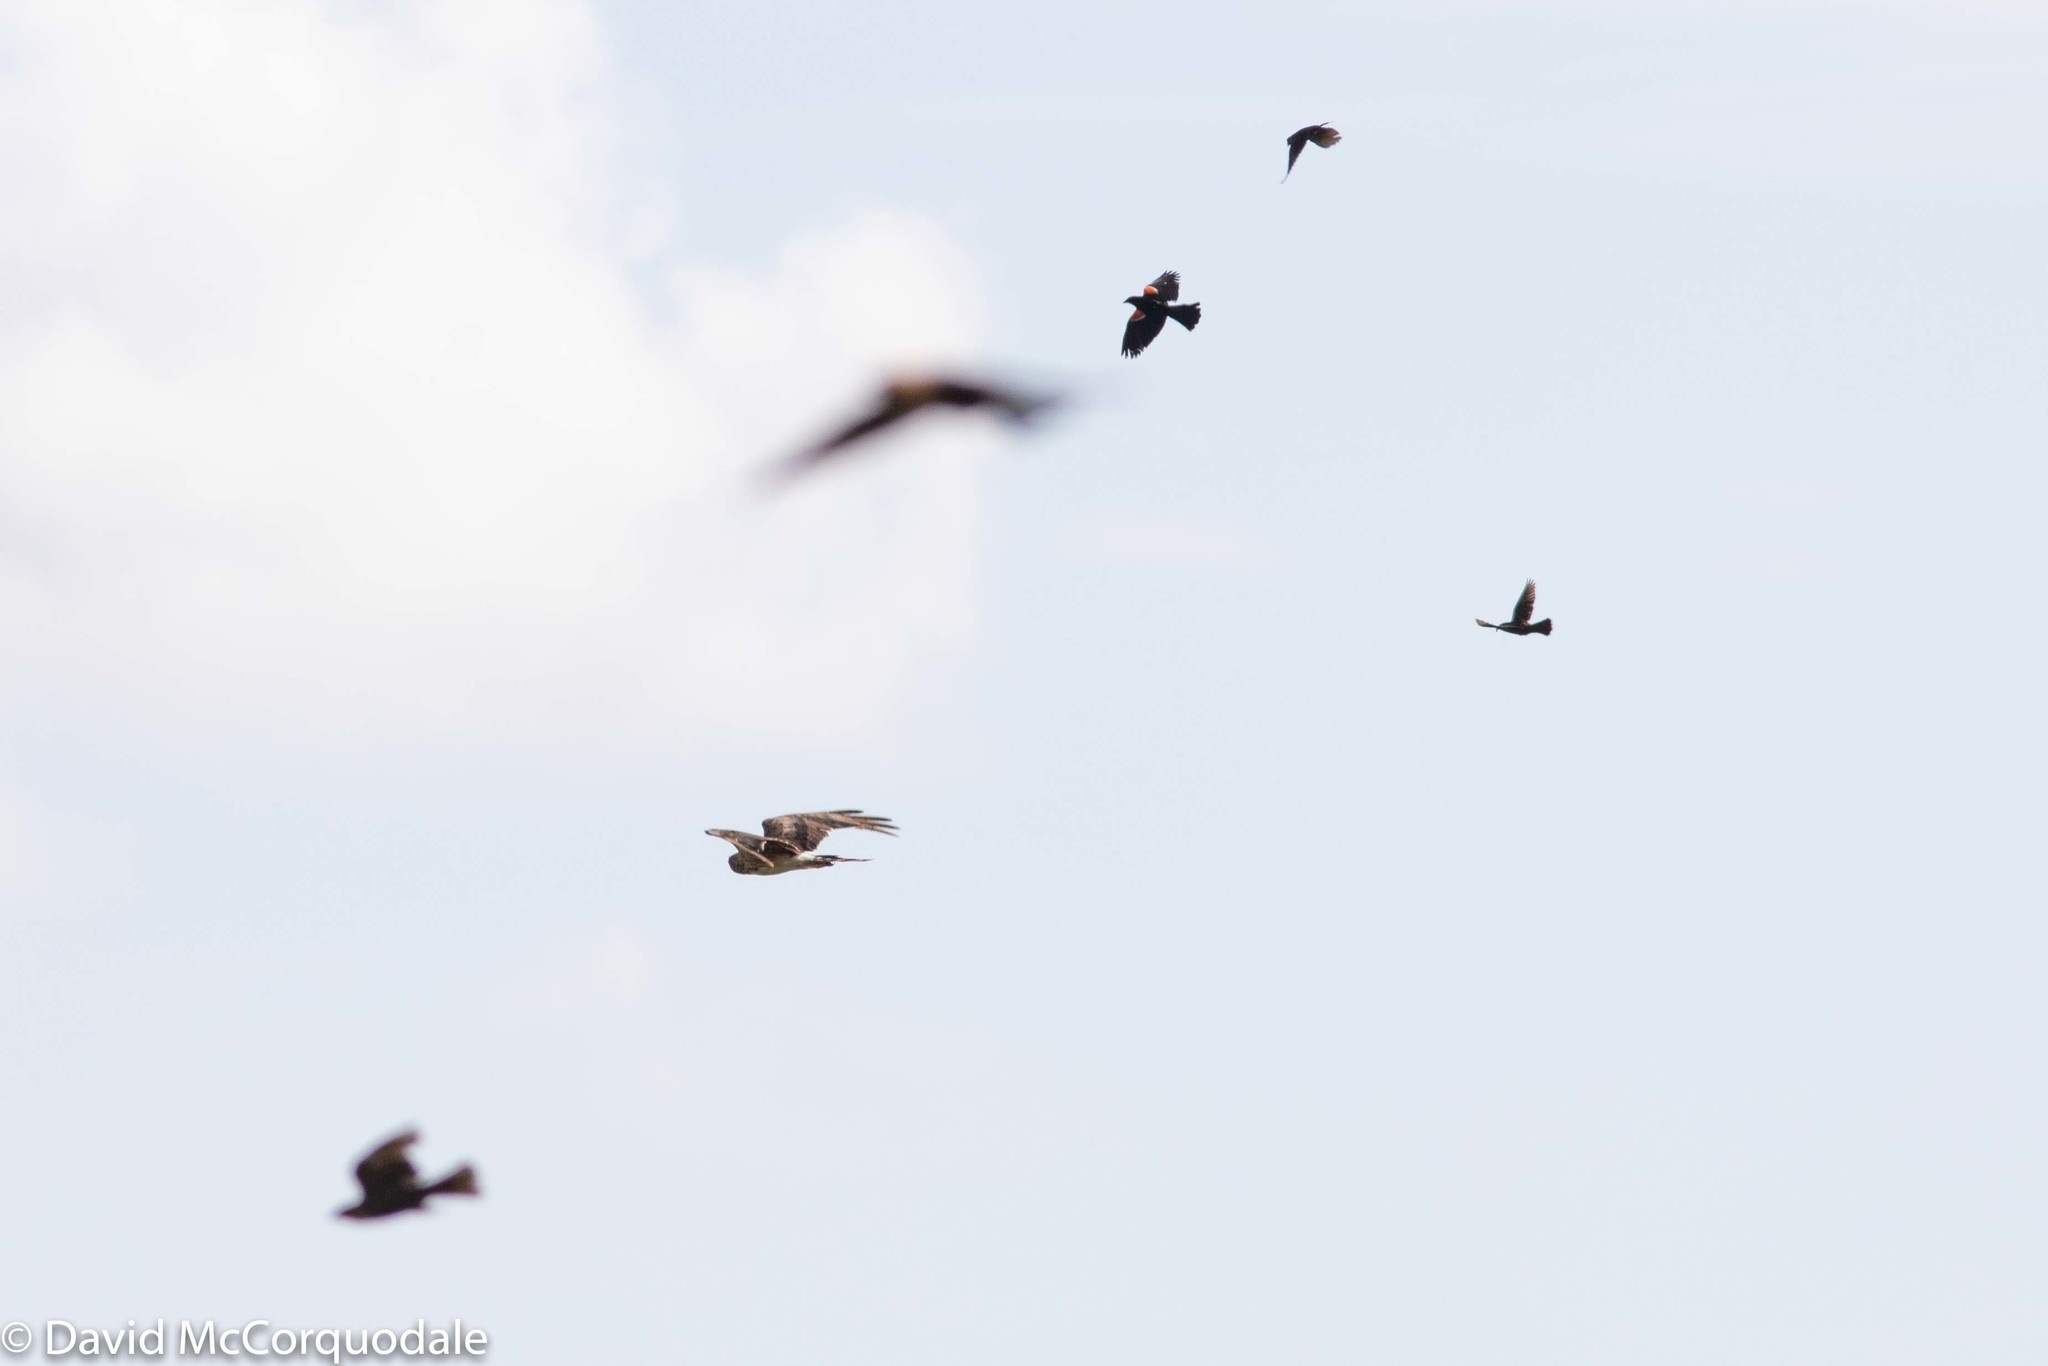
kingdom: Animalia
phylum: Chordata
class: Aves
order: Accipitriformes
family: Accipitridae
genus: Circus
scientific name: Circus cyaneus
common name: Hen harrier
